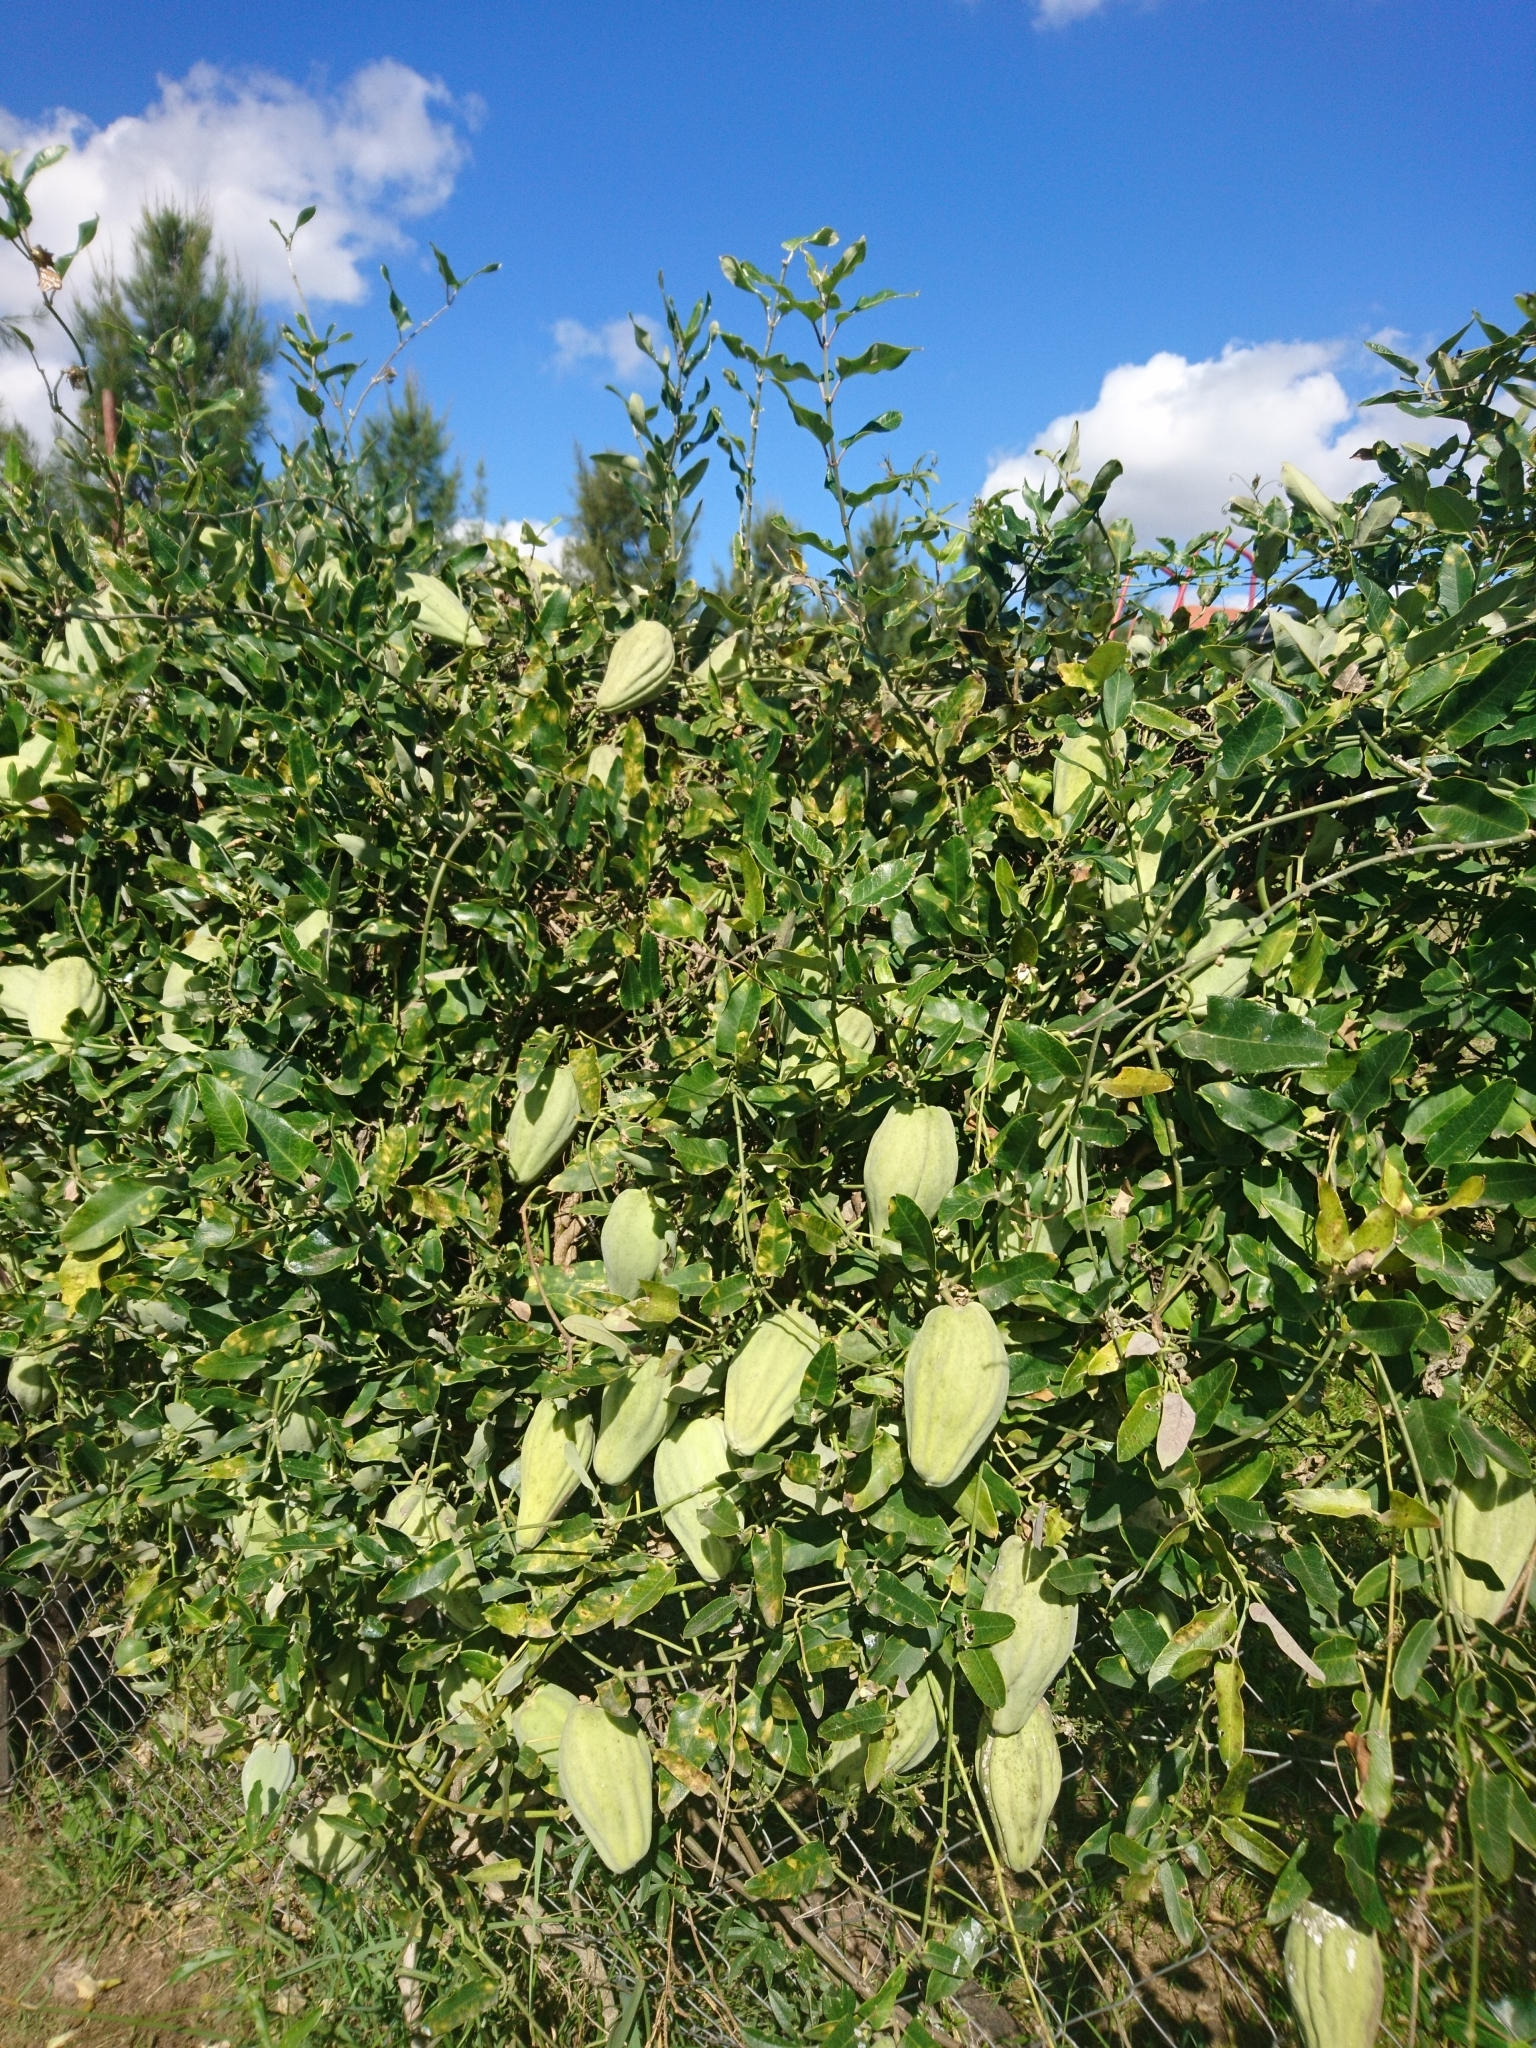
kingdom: Plantae
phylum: Tracheophyta
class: Magnoliopsida
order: Gentianales
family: Apocynaceae
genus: Araujia
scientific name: Araujia sericifera
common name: White bladderflower
